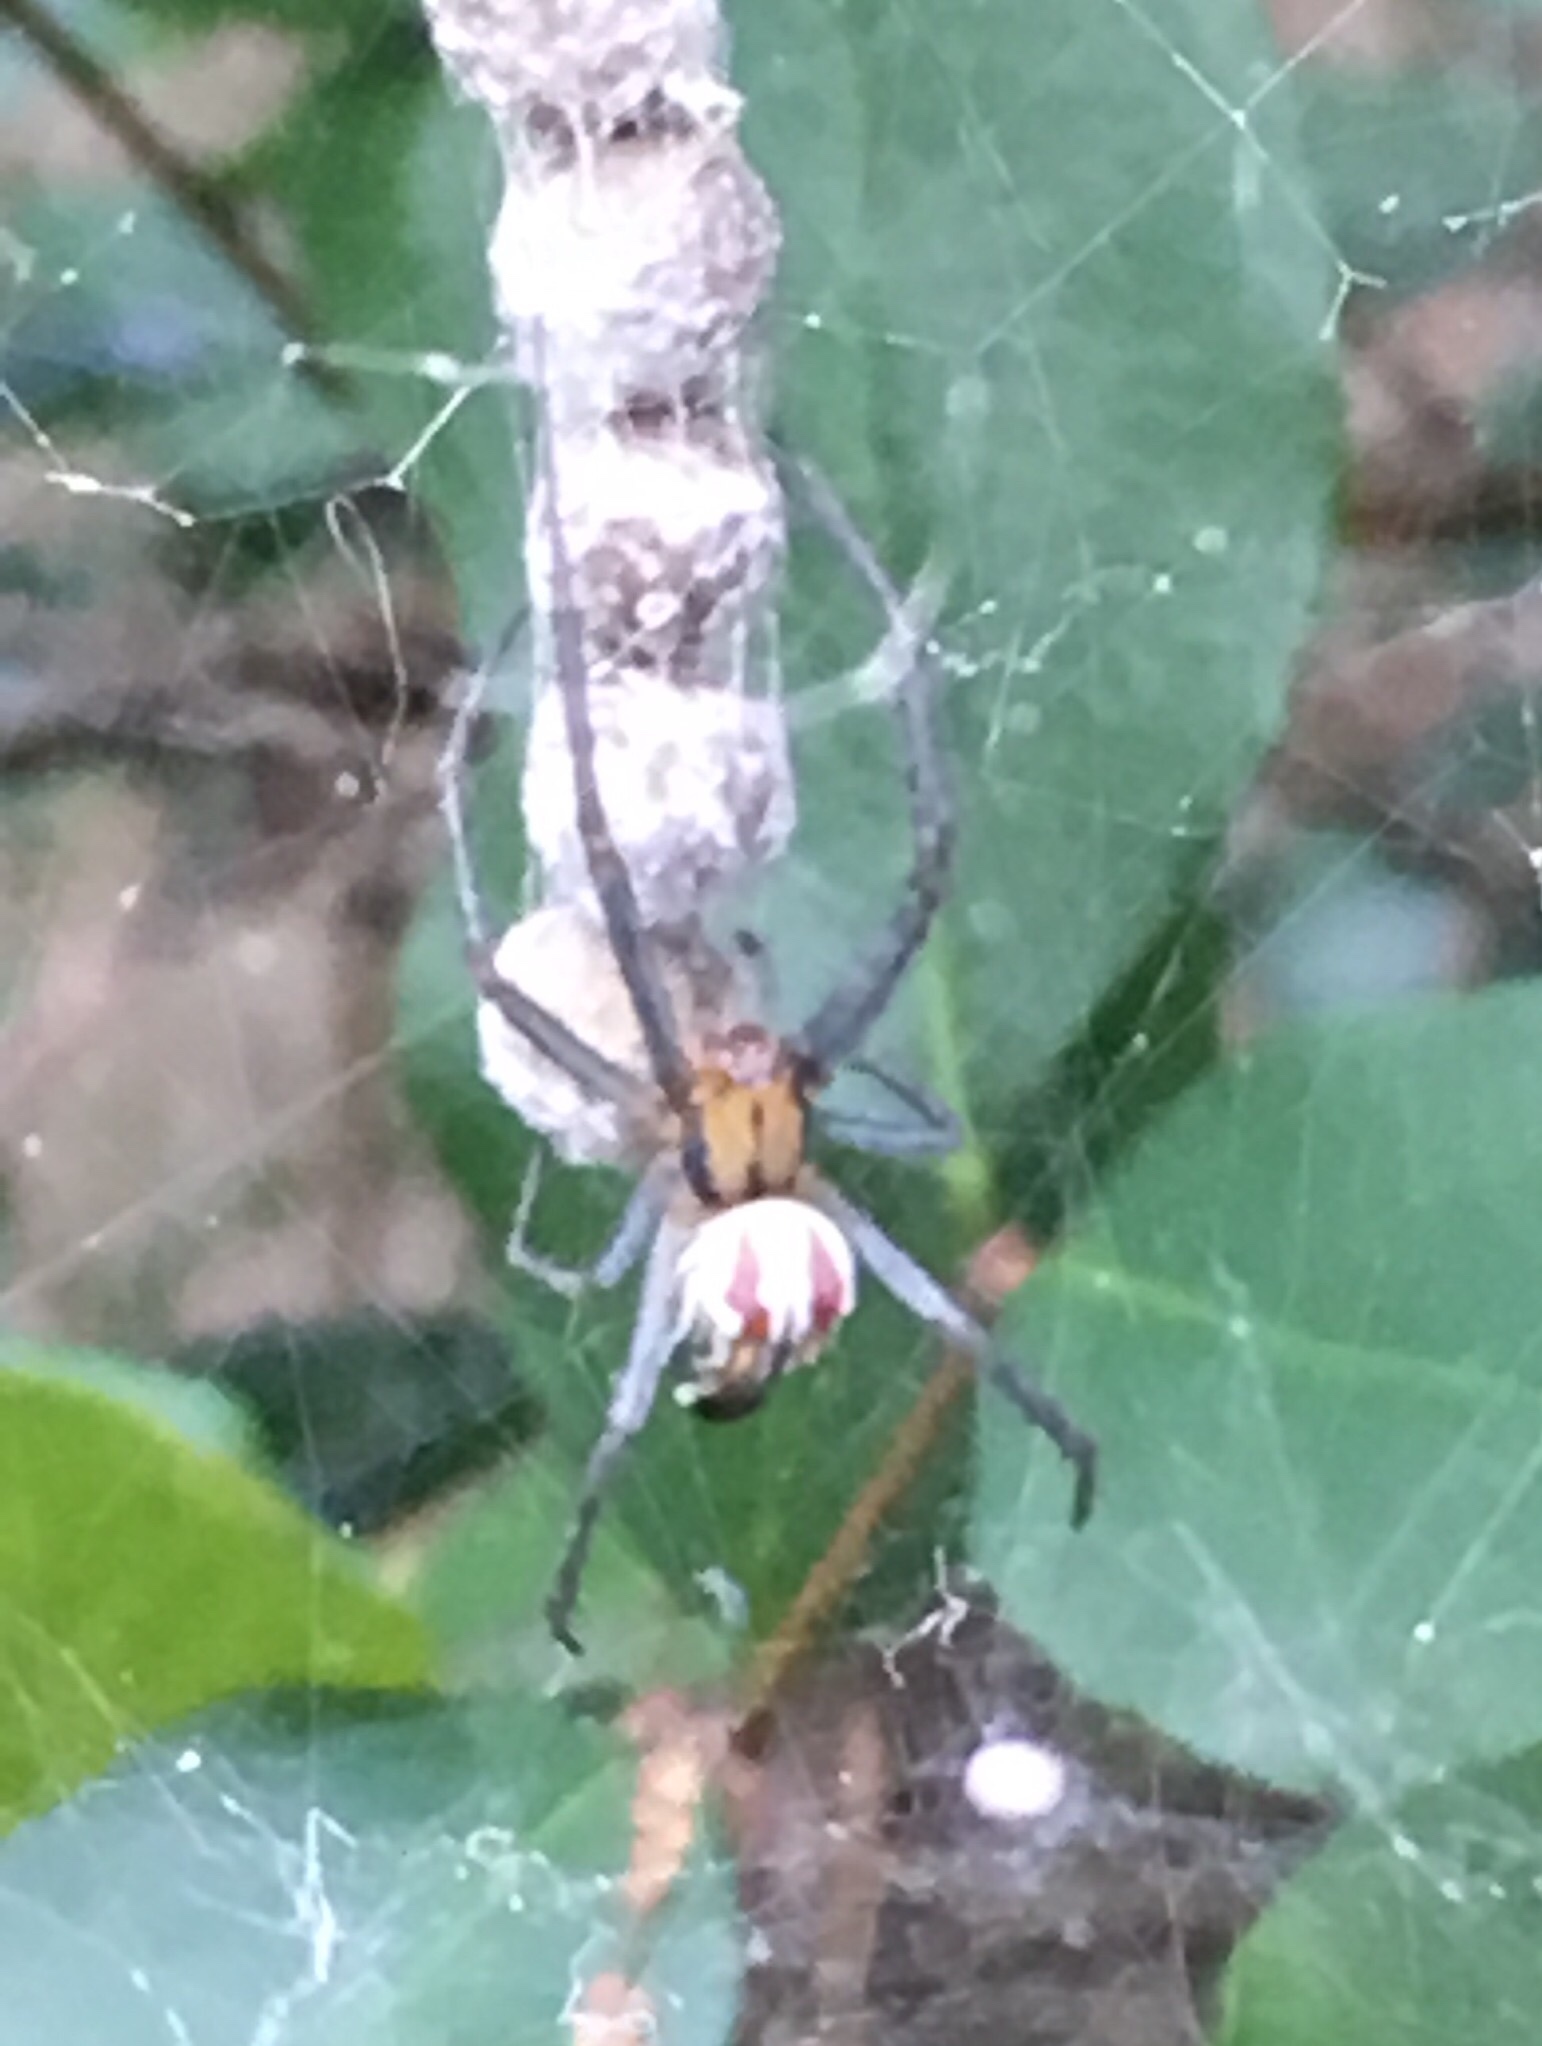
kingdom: Animalia
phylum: Arthropoda
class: Arachnida
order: Araneae
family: Araneidae
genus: Mecynogea
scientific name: Mecynogea lemniscata
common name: Orb weavers
